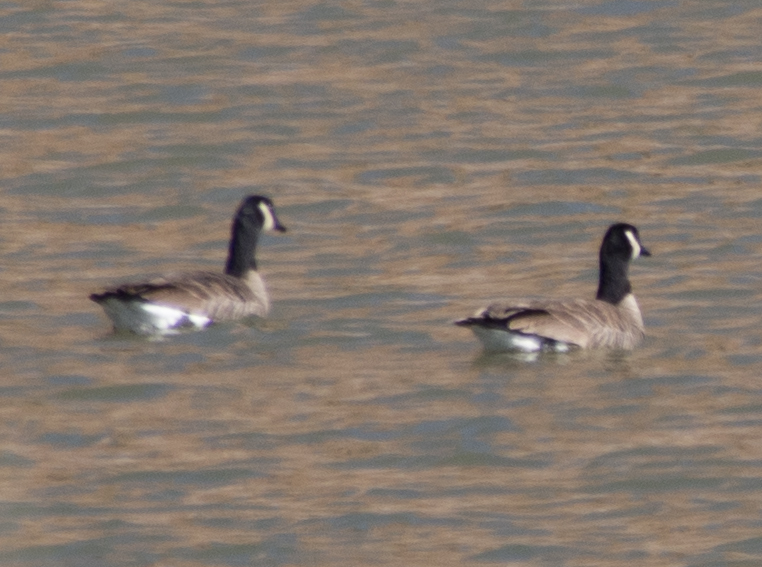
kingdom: Animalia
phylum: Chordata
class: Aves
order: Anseriformes
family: Anatidae
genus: Branta
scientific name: Branta canadensis
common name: Canada goose
